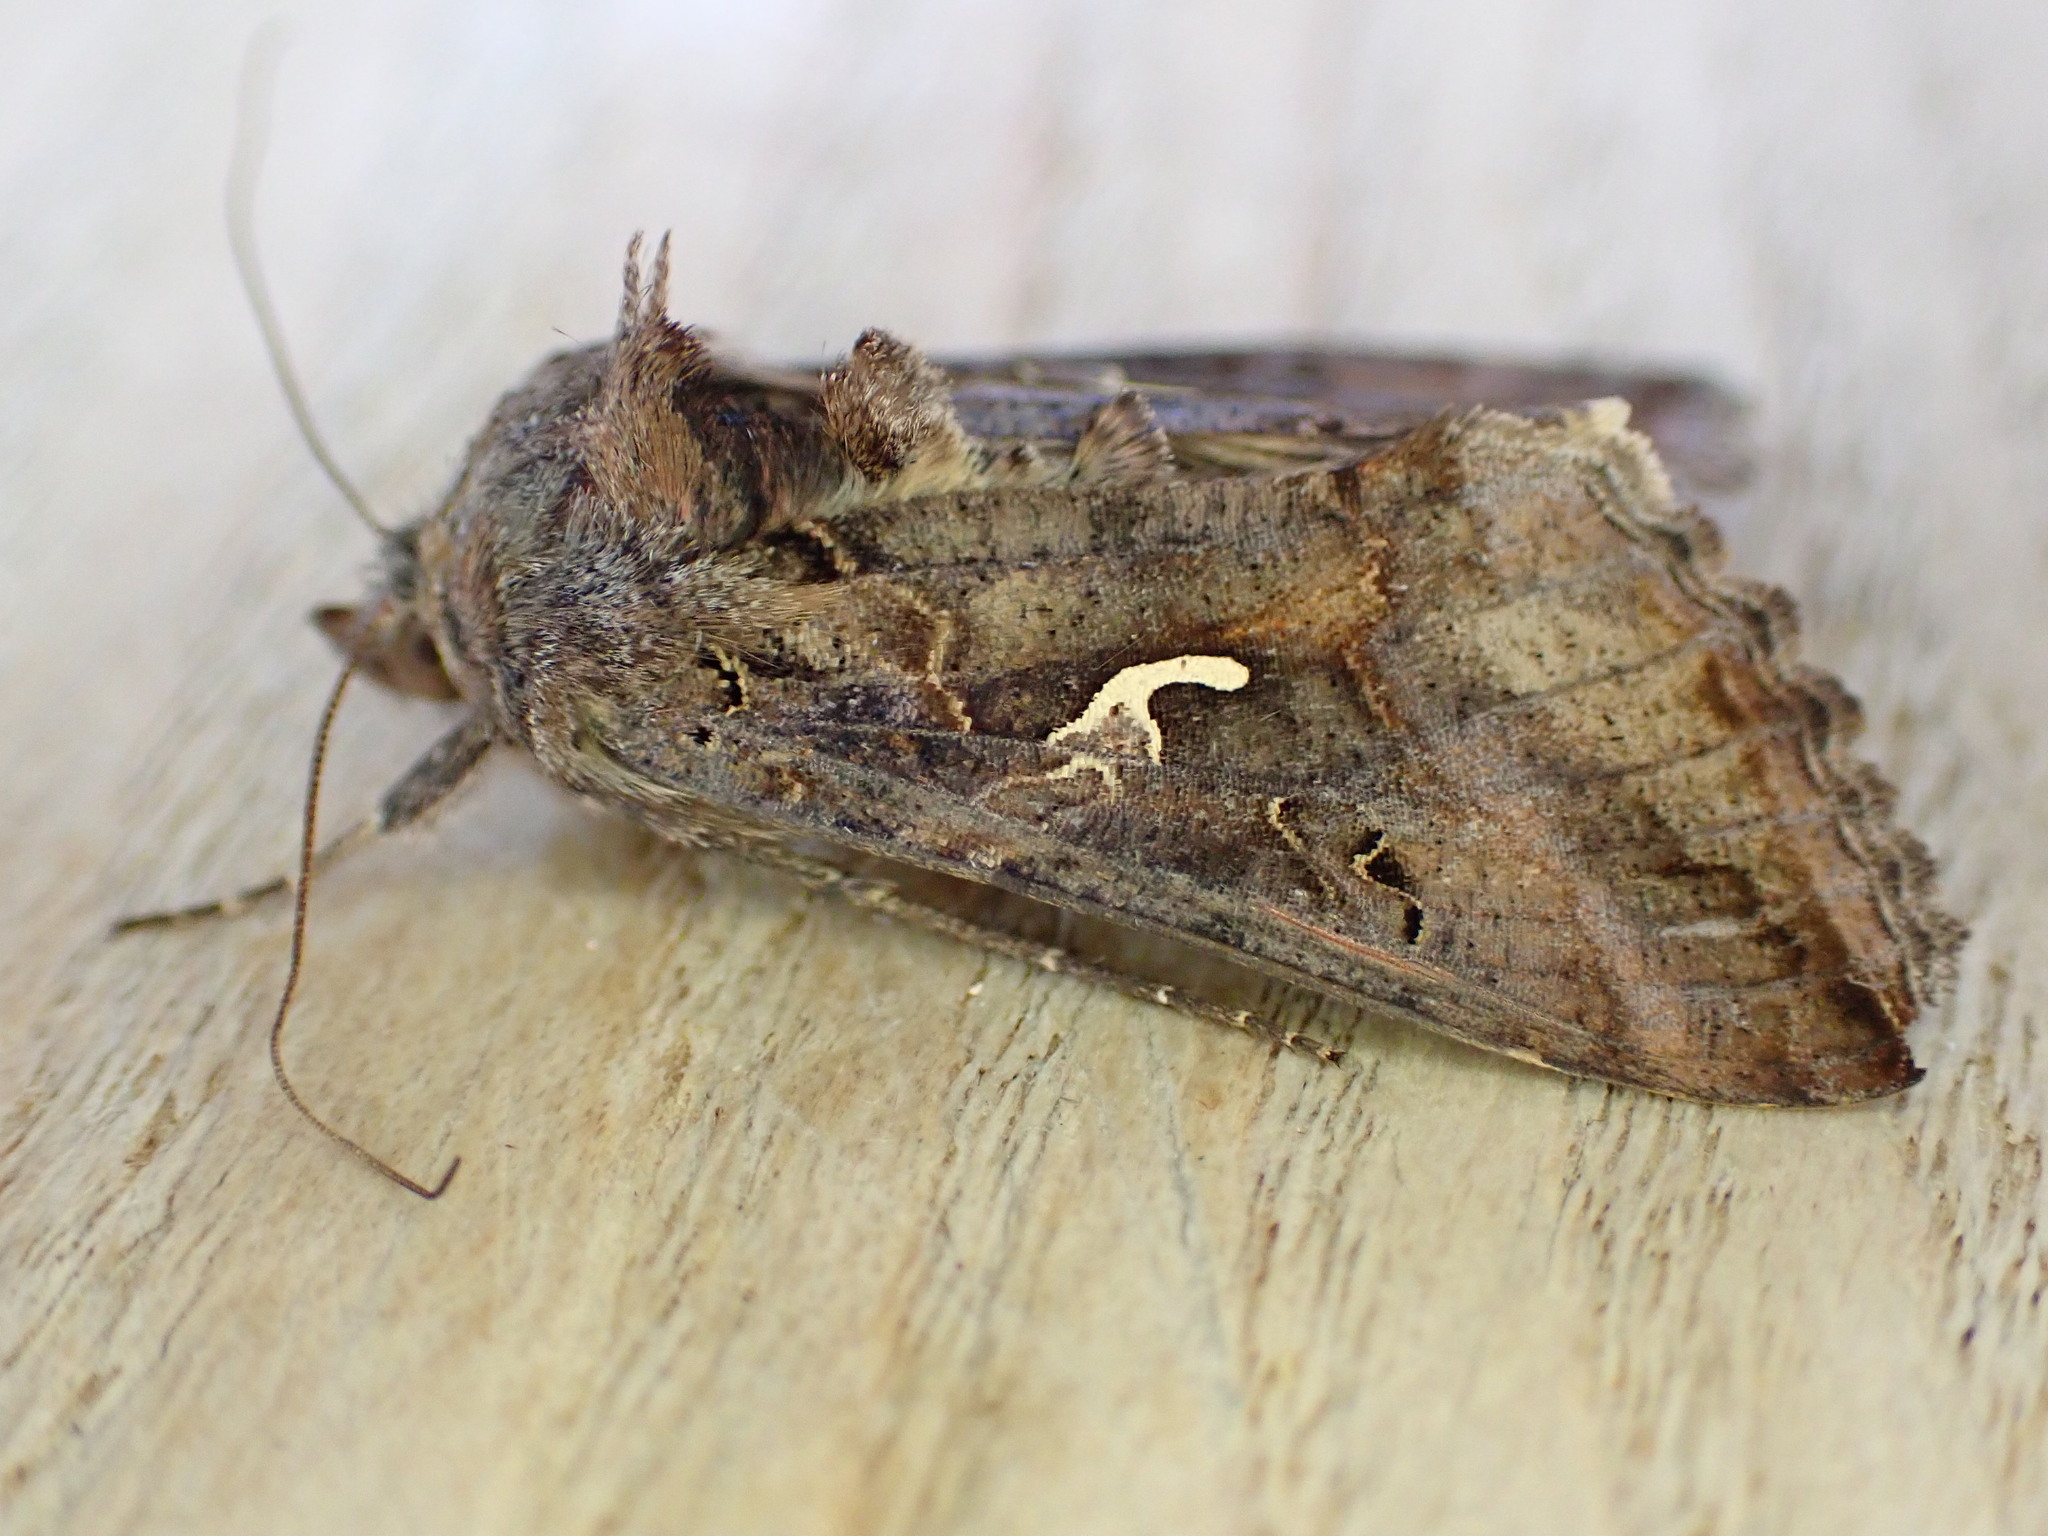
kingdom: Animalia
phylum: Arthropoda
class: Insecta
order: Lepidoptera
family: Noctuidae
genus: Autographa
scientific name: Autographa gamma
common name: Silver y
